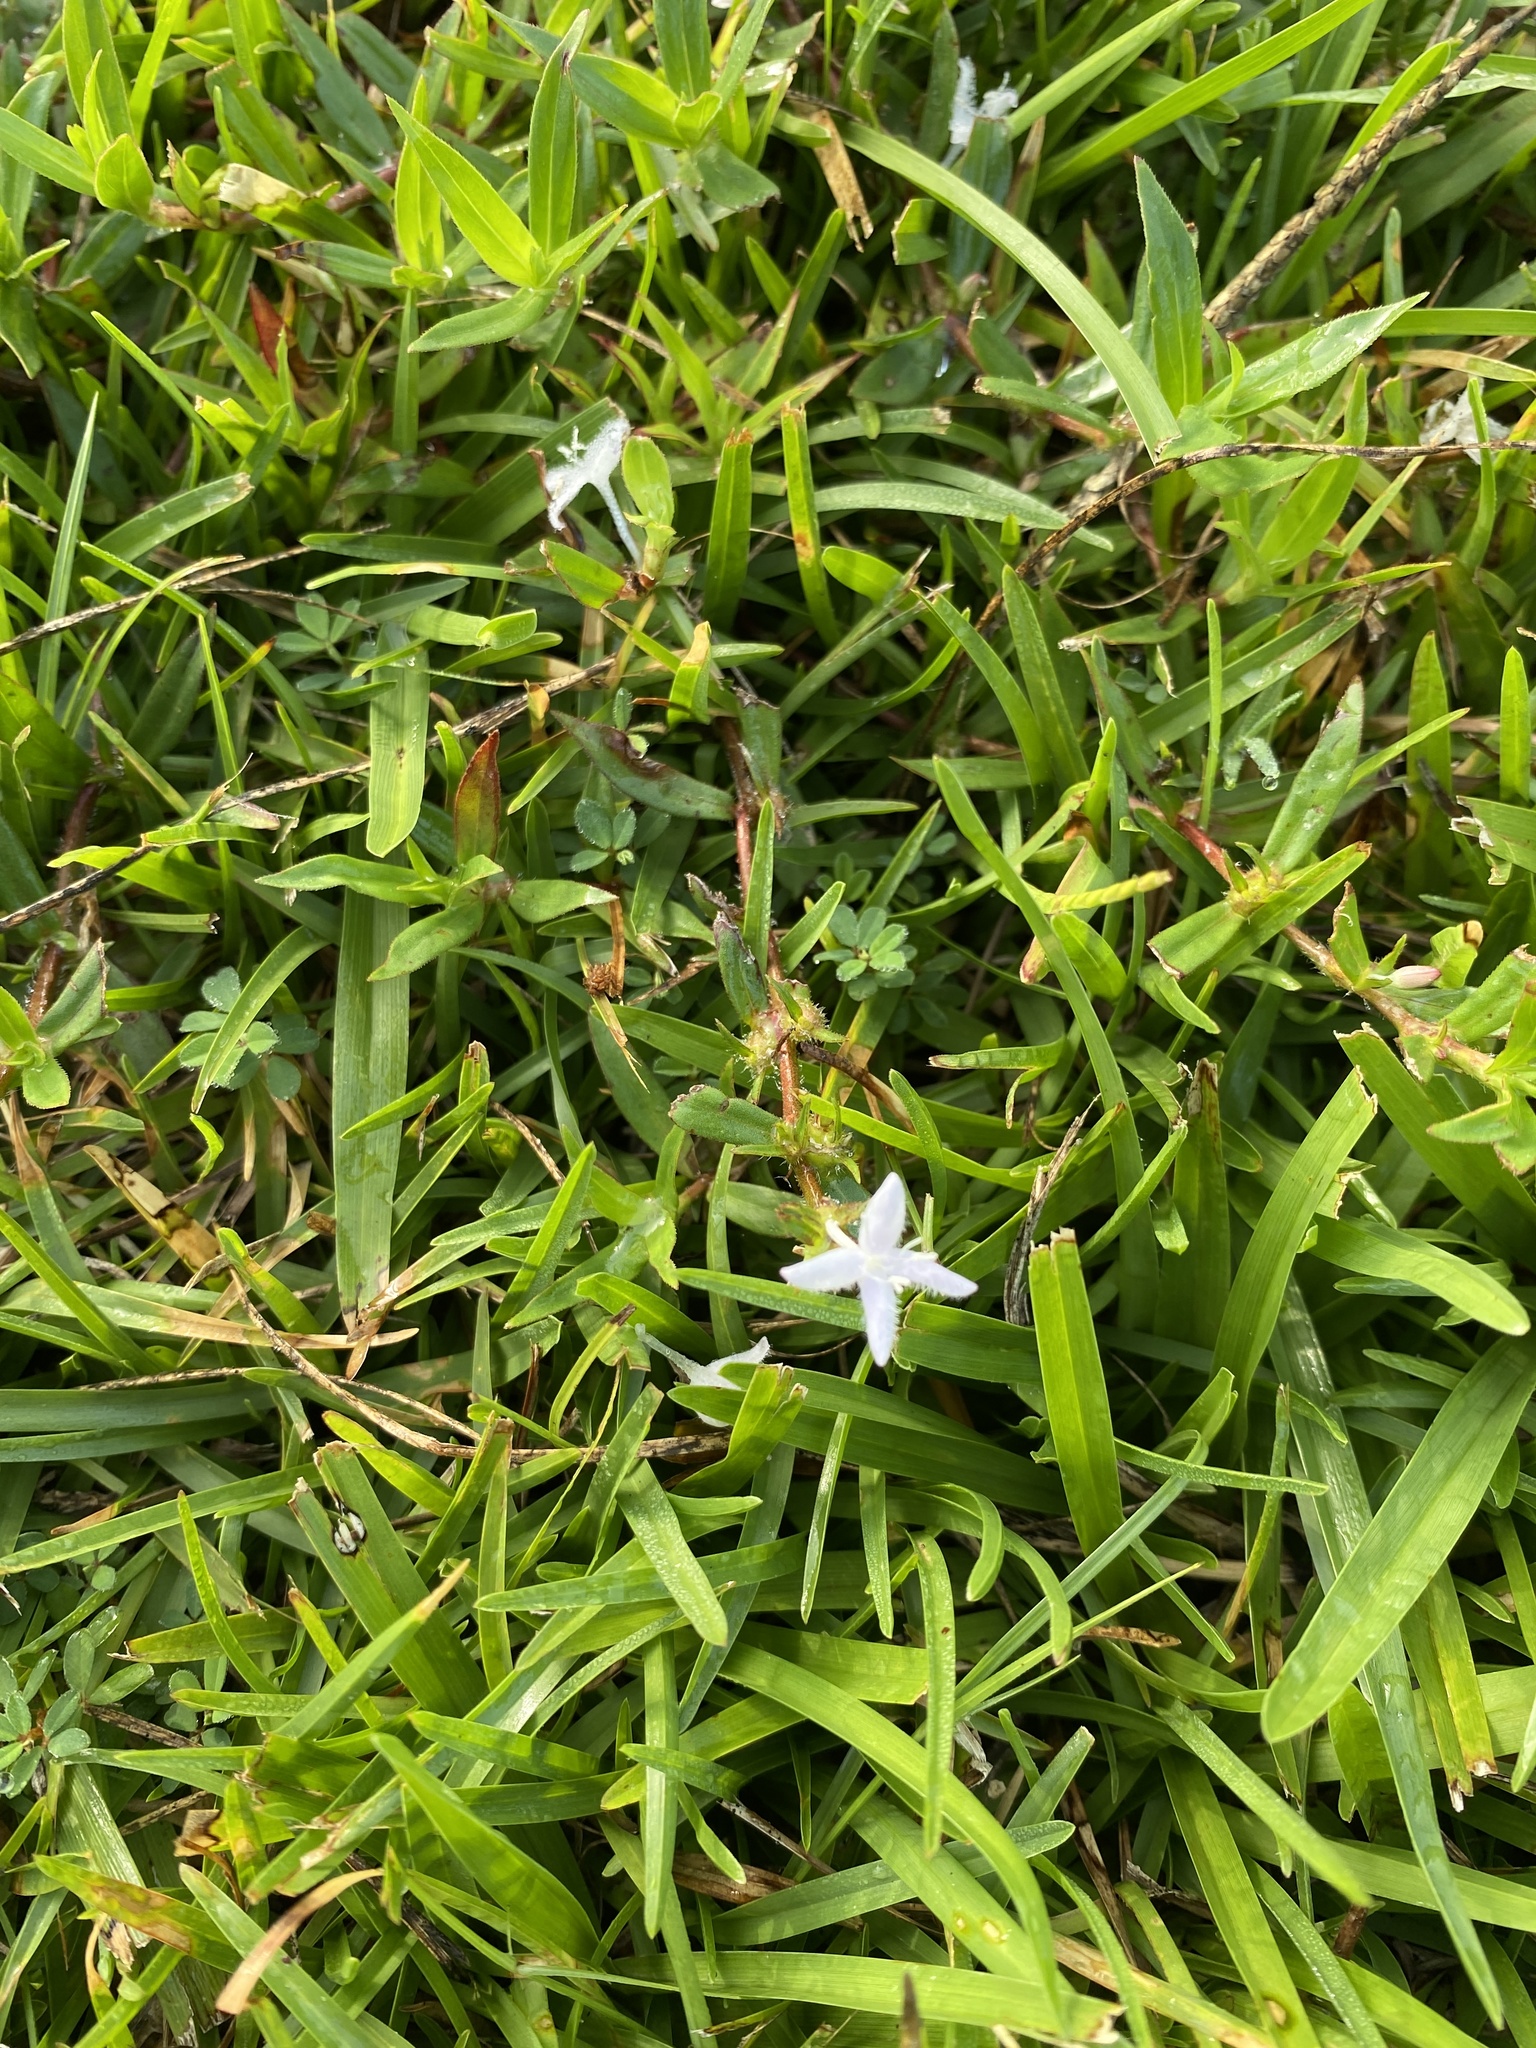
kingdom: Plantae
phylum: Tracheophyta
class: Magnoliopsida
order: Gentianales
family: Rubiaceae
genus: Diodia
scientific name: Diodia virginiana
